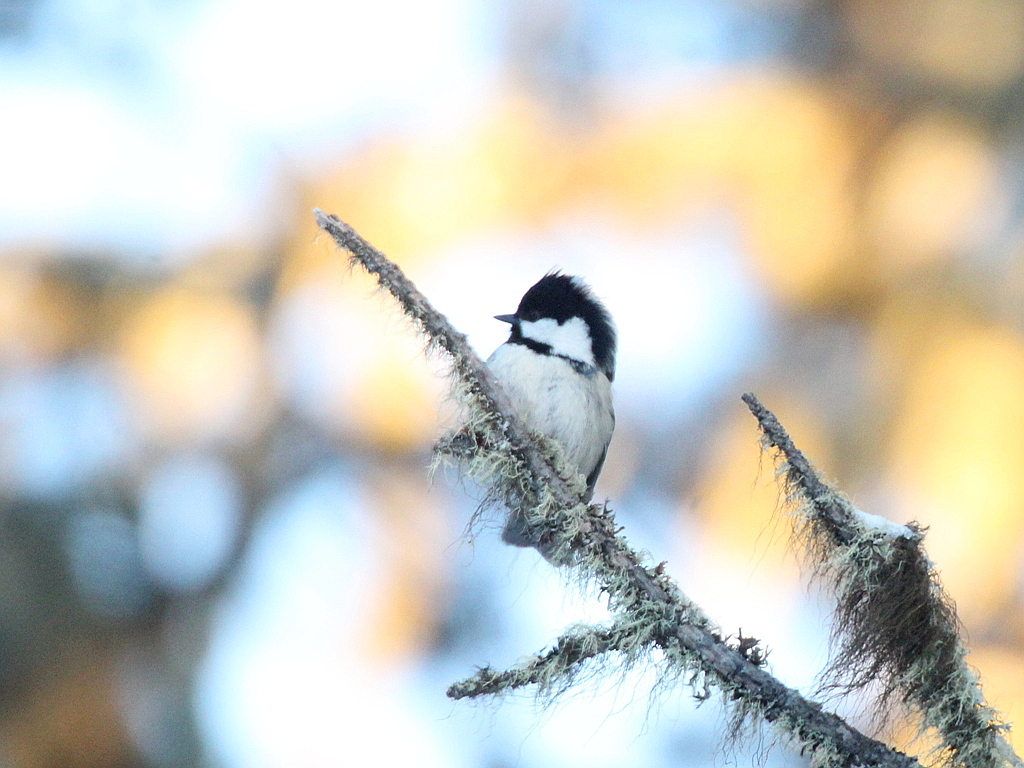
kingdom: Animalia
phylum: Chordata
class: Aves
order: Passeriformes
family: Paridae
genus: Periparus
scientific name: Periparus ater
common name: Coal tit
